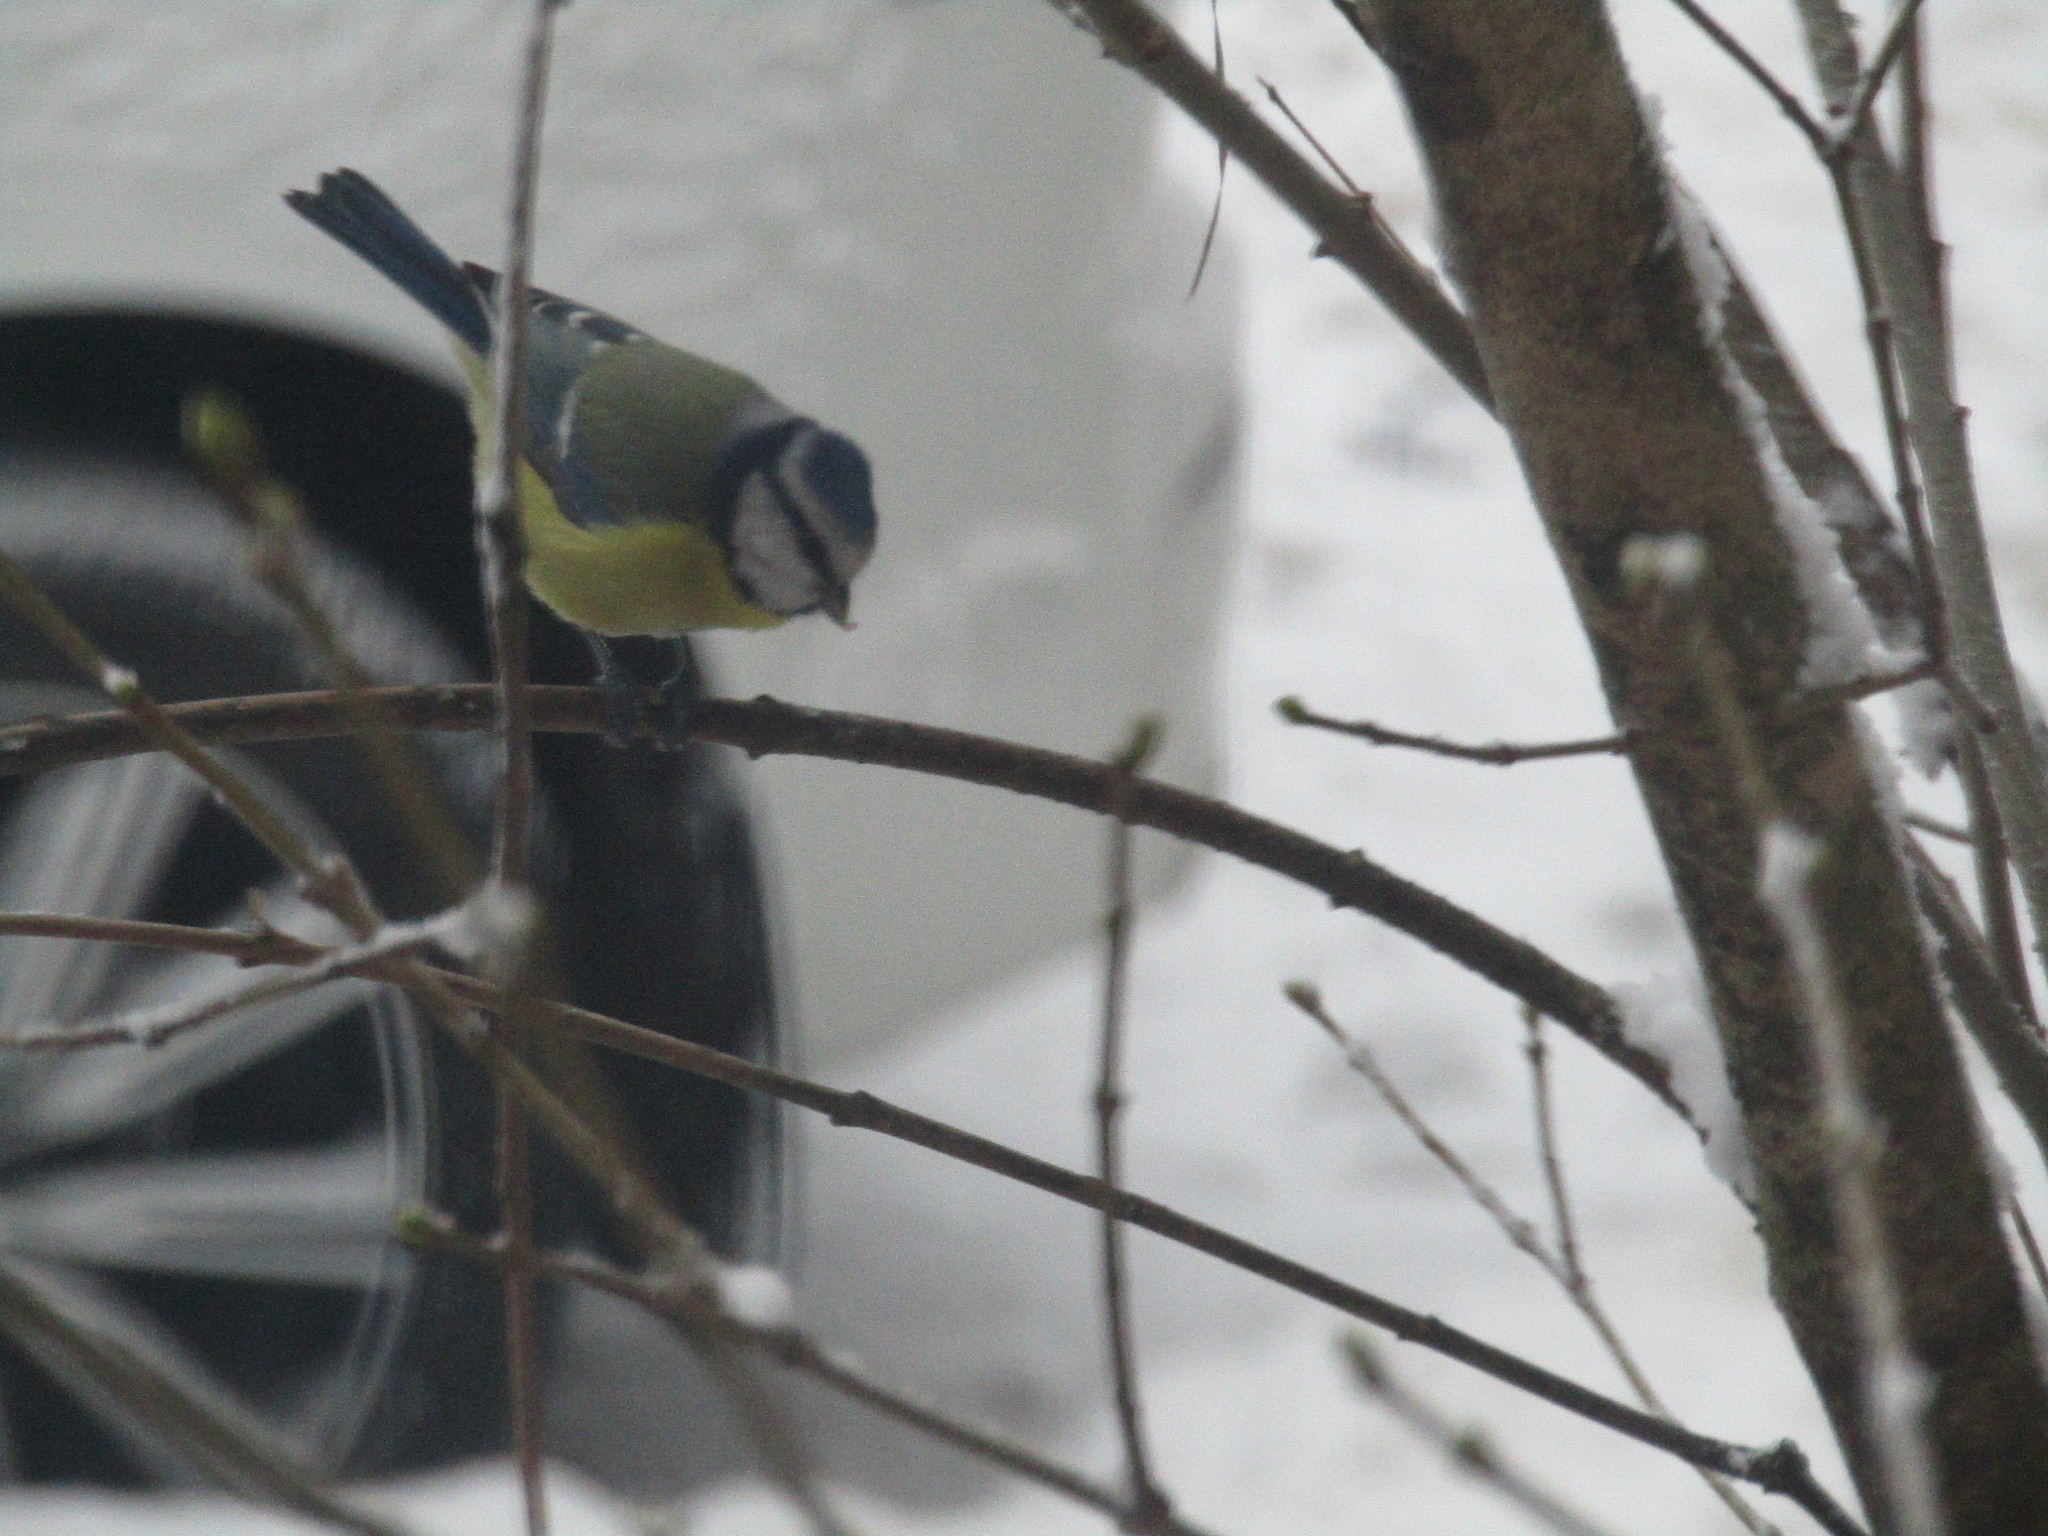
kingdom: Animalia
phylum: Chordata
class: Aves
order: Passeriformes
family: Paridae
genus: Cyanistes
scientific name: Cyanistes caeruleus
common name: Eurasian blue tit
